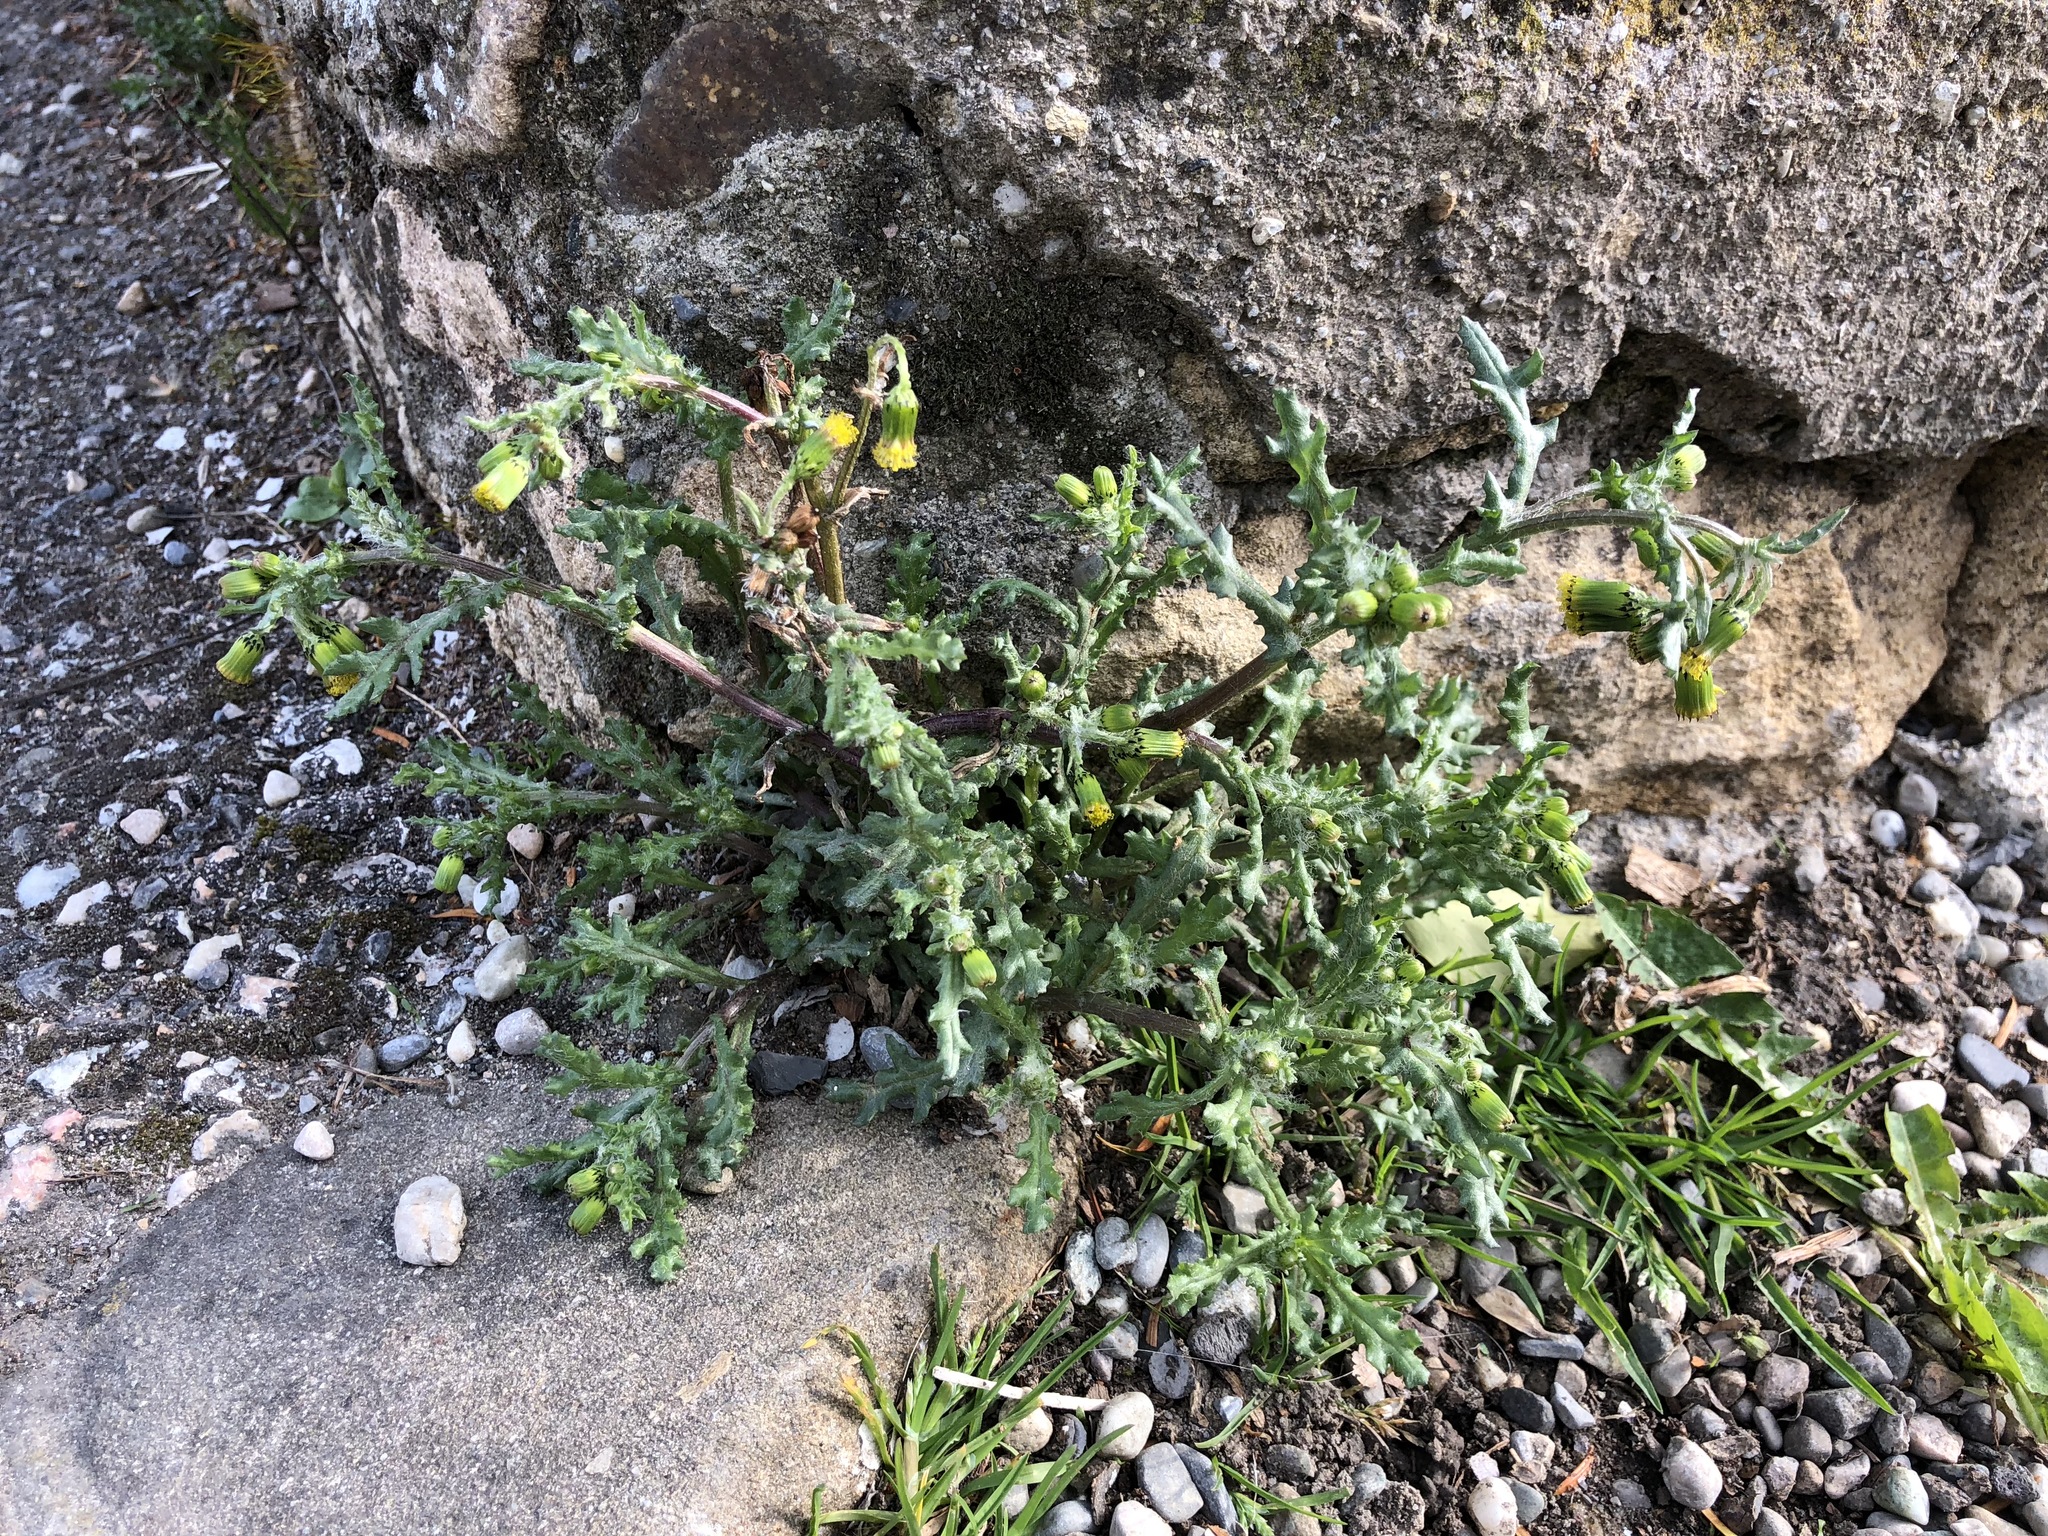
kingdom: Plantae
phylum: Tracheophyta
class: Magnoliopsida
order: Asterales
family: Asteraceae
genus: Senecio
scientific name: Senecio vulgaris
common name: Old-man-in-the-spring
